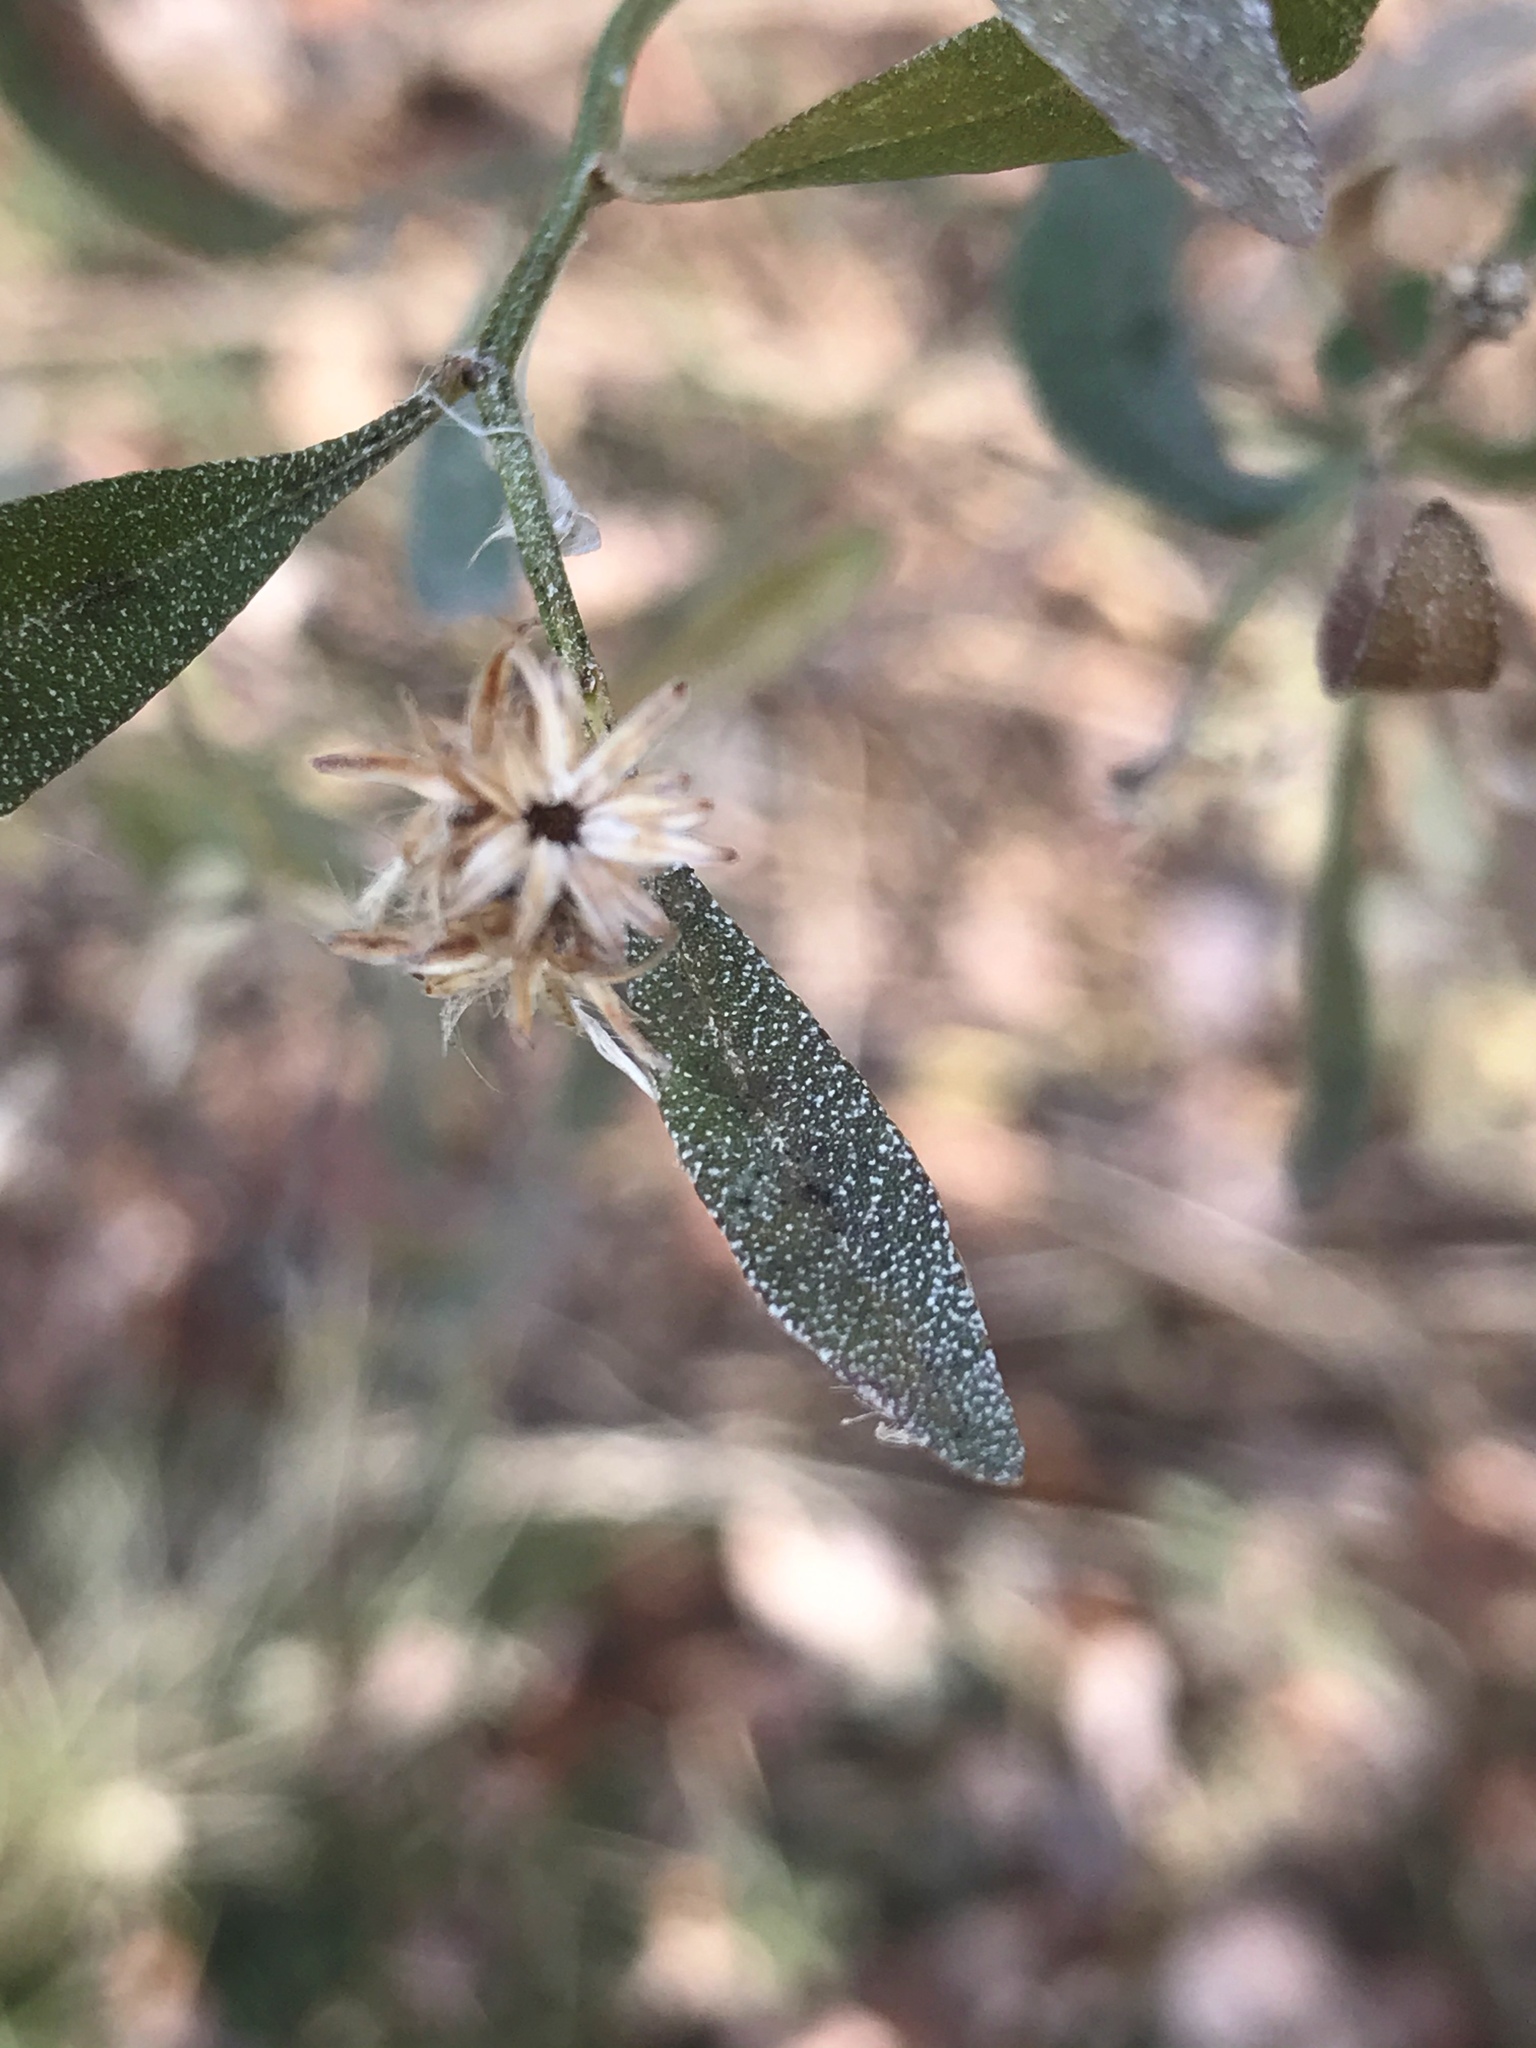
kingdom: Plantae
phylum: Tracheophyta
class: Magnoliopsida
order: Asterales
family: Asteraceae
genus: Baccharis
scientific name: Baccharis halimifolia
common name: Eastern baccharis
